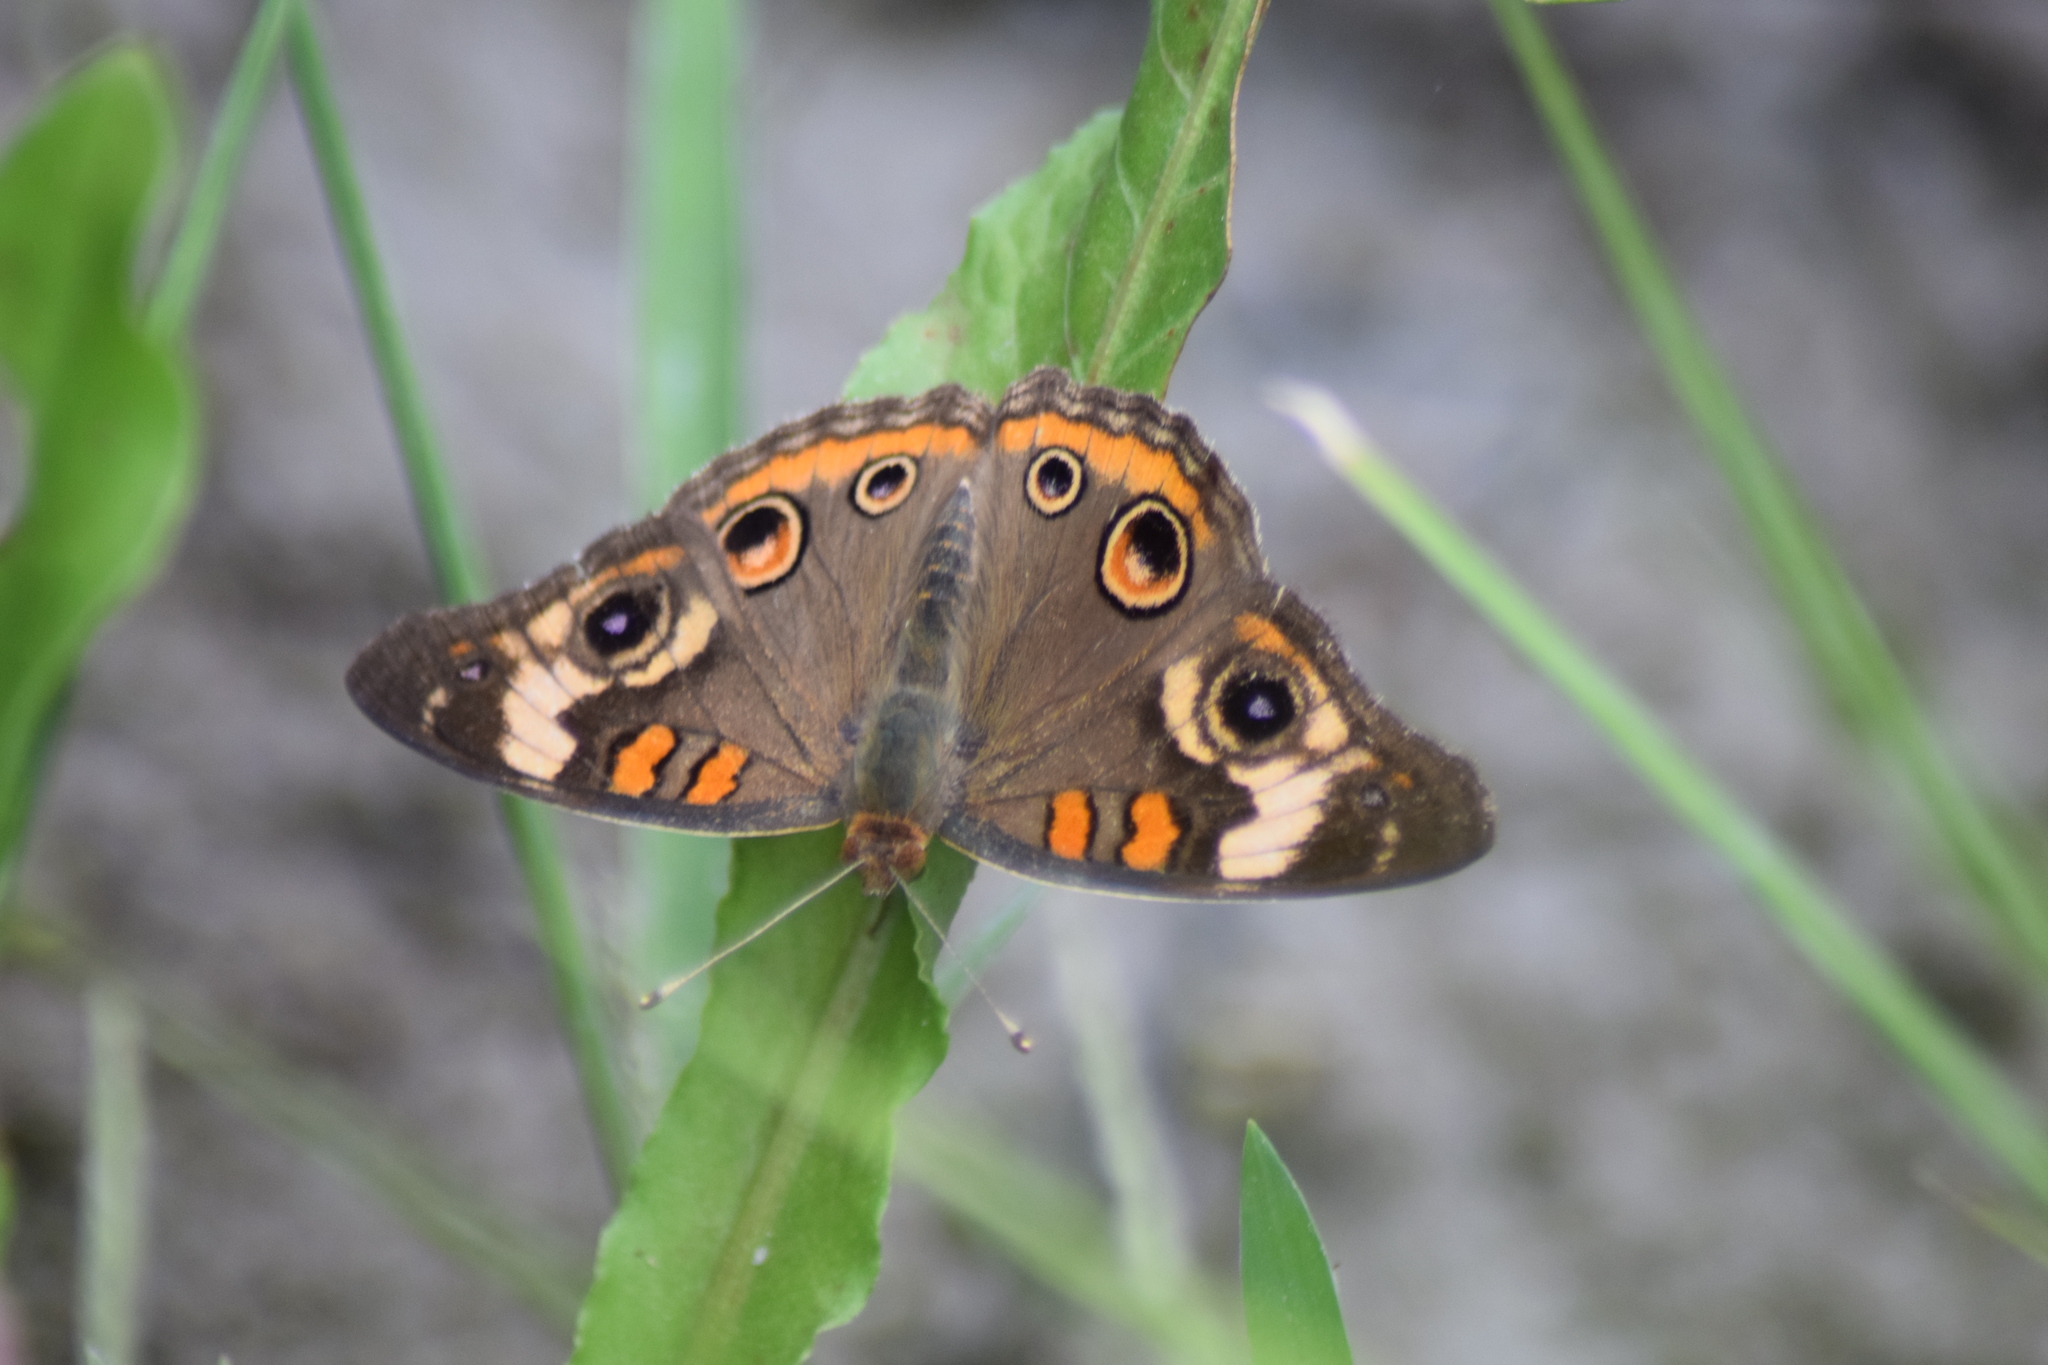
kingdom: Animalia
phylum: Arthropoda
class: Insecta
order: Lepidoptera
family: Nymphalidae
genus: Junonia
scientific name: Junonia coenia
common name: Common buckeye
